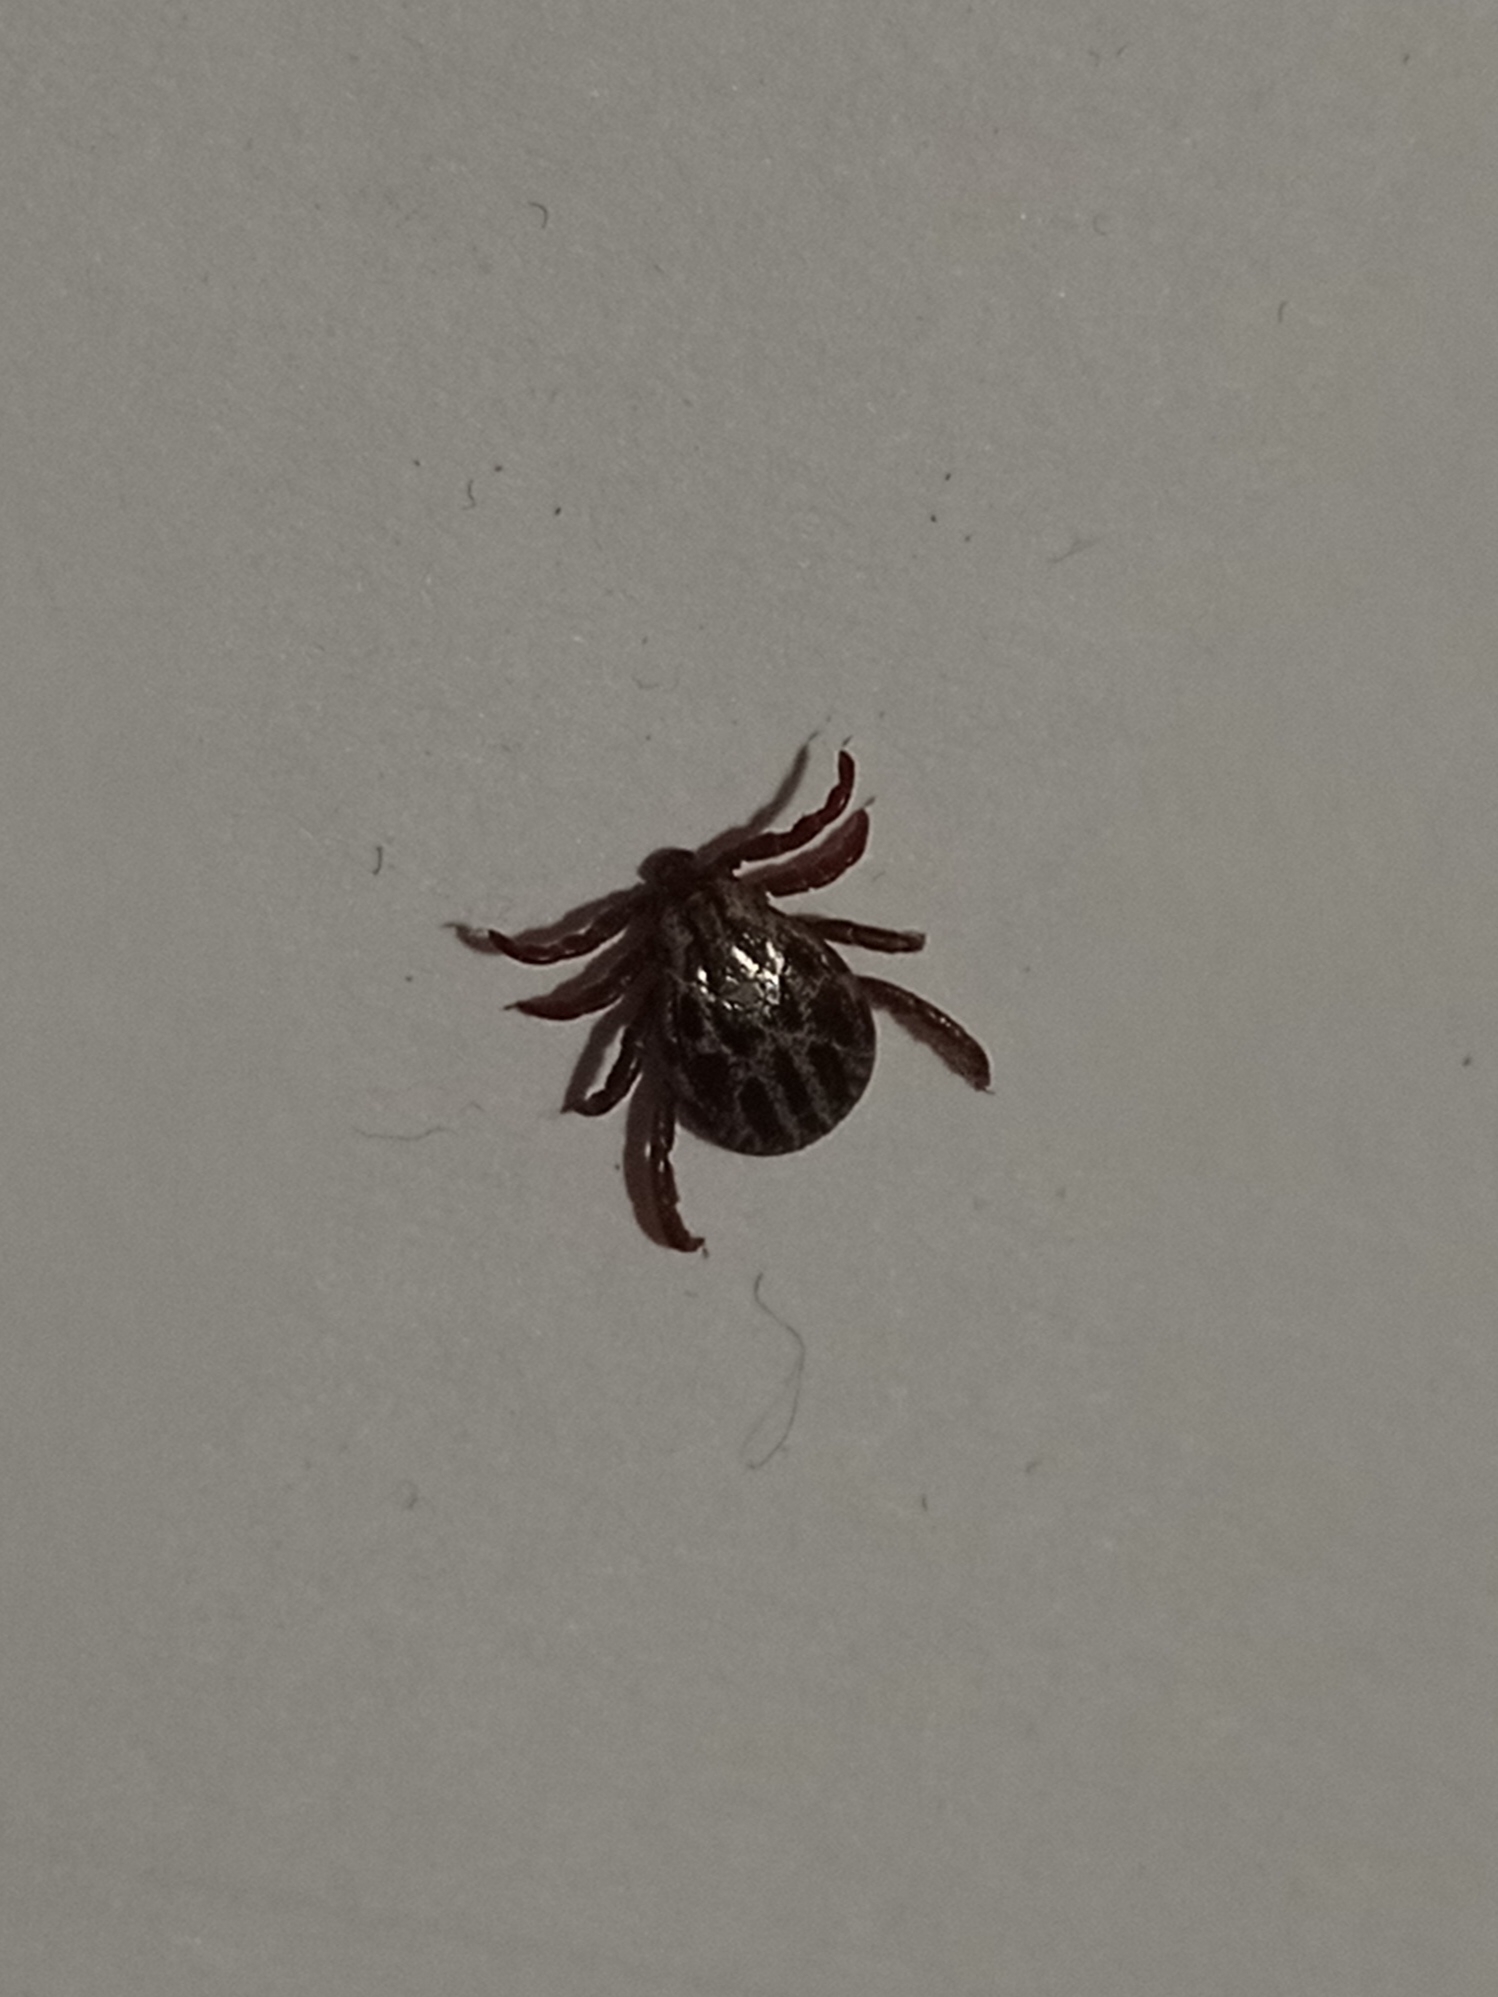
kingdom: Animalia
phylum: Arthropoda
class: Arachnida
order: Ixodida
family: Ixodidae
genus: Dermacentor
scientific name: Dermacentor reticulatus
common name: Ornate cow tick
